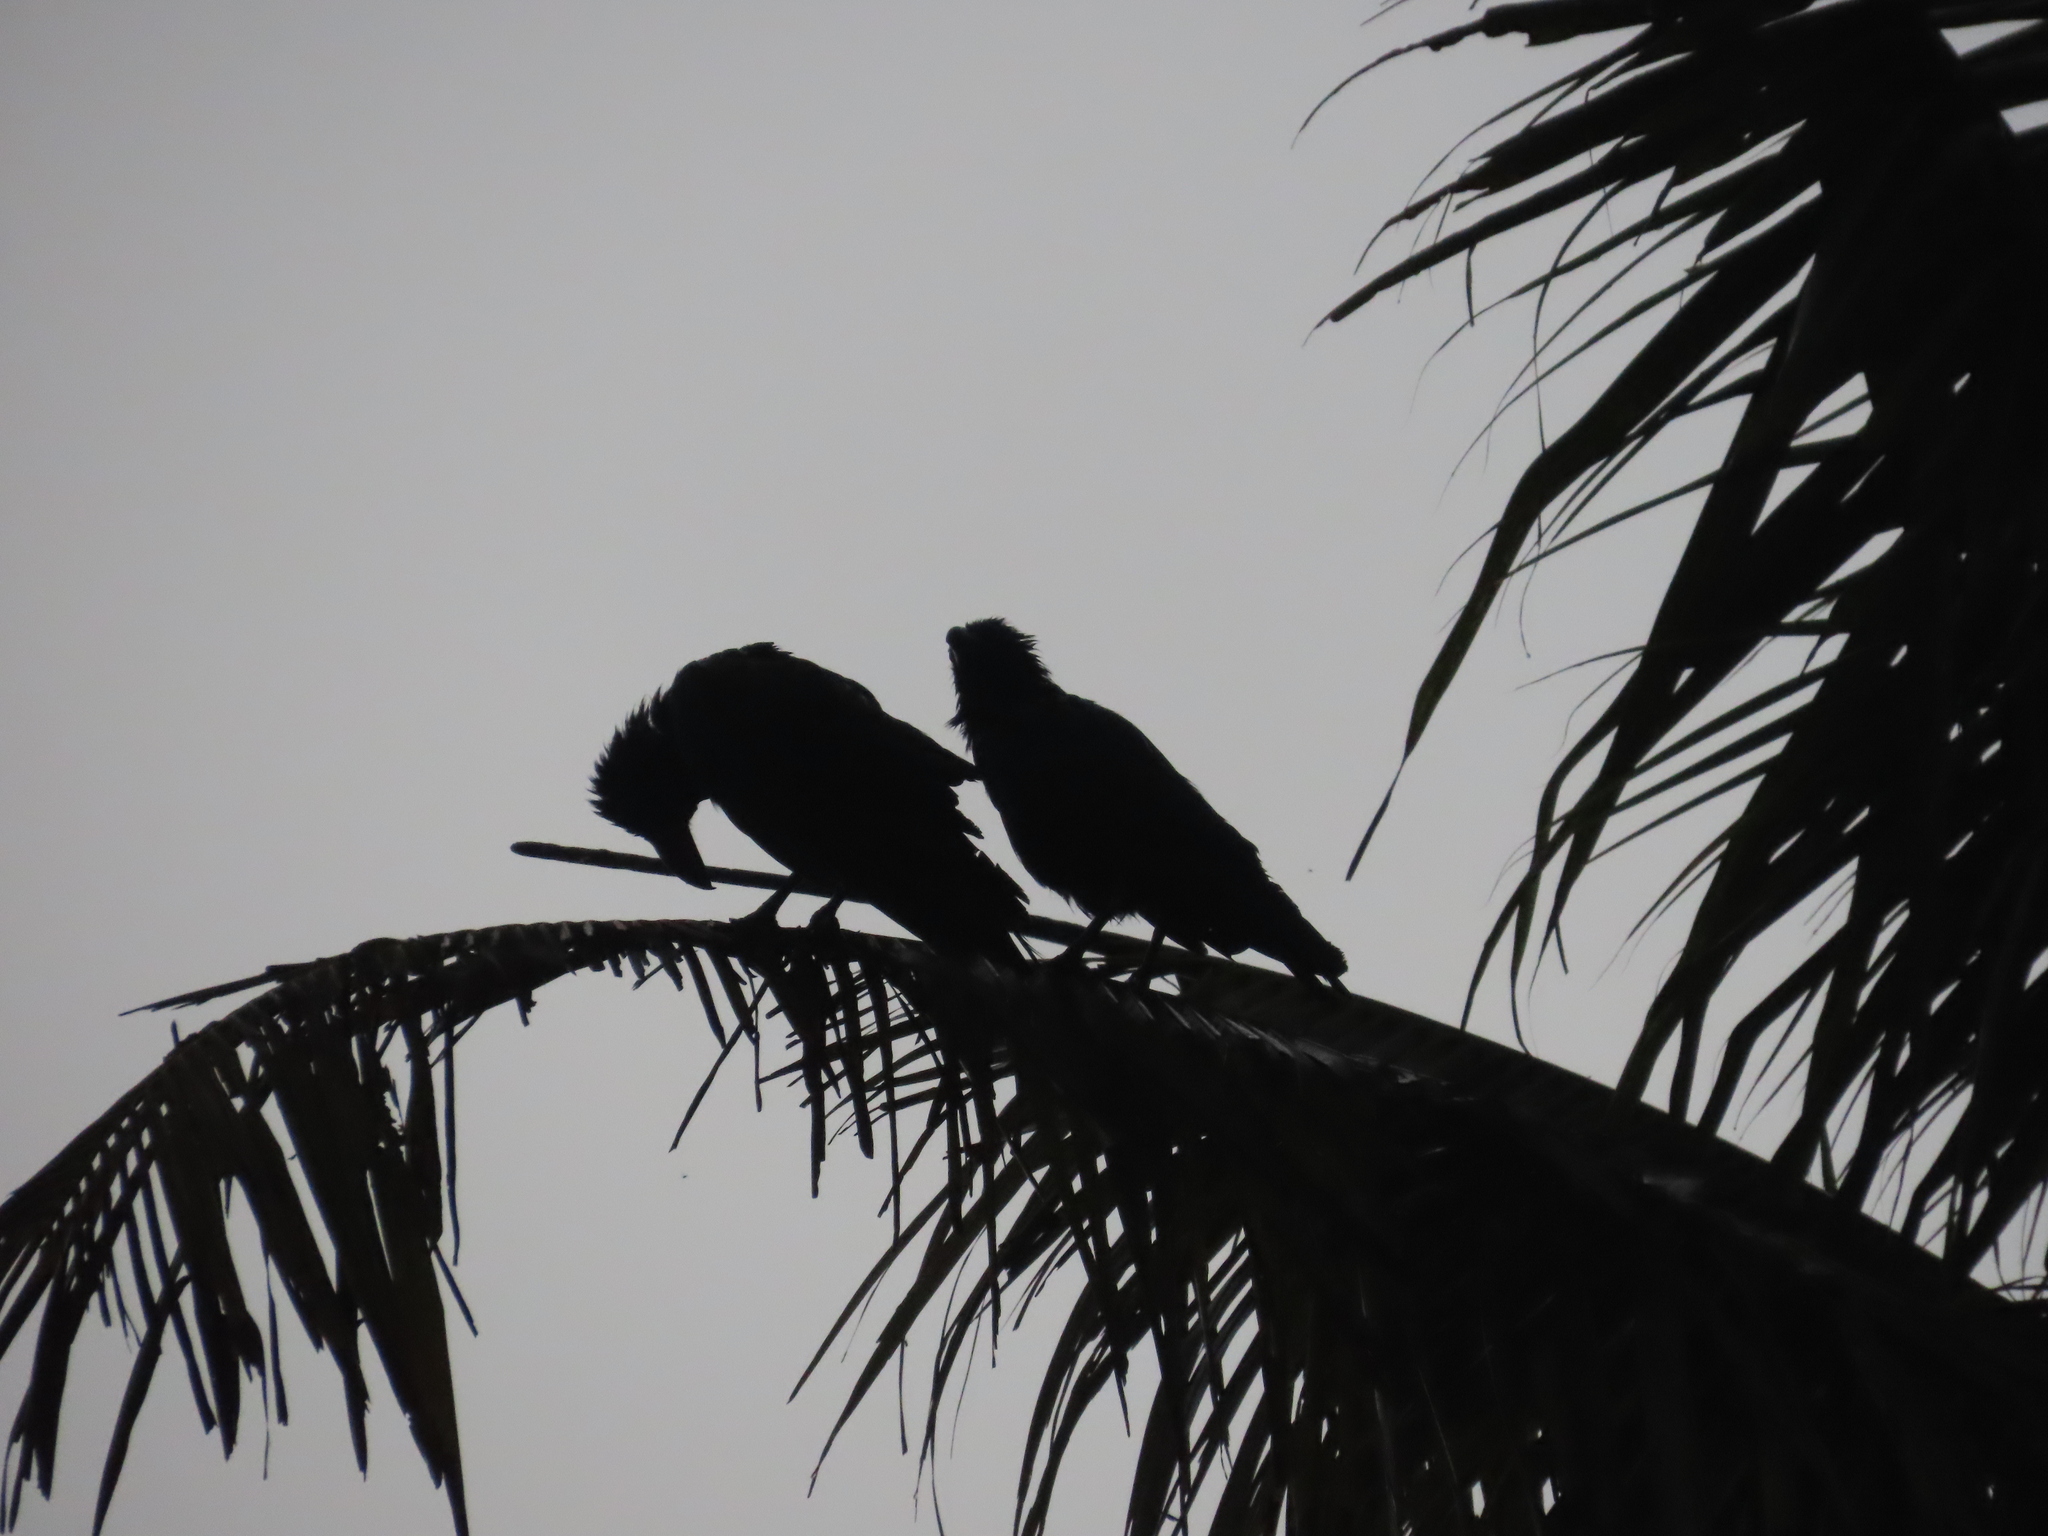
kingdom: Animalia
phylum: Chordata
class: Aves
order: Passeriformes
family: Corvidae
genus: Corvus
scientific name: Corvus macrorhynchos
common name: Large-billed crow
